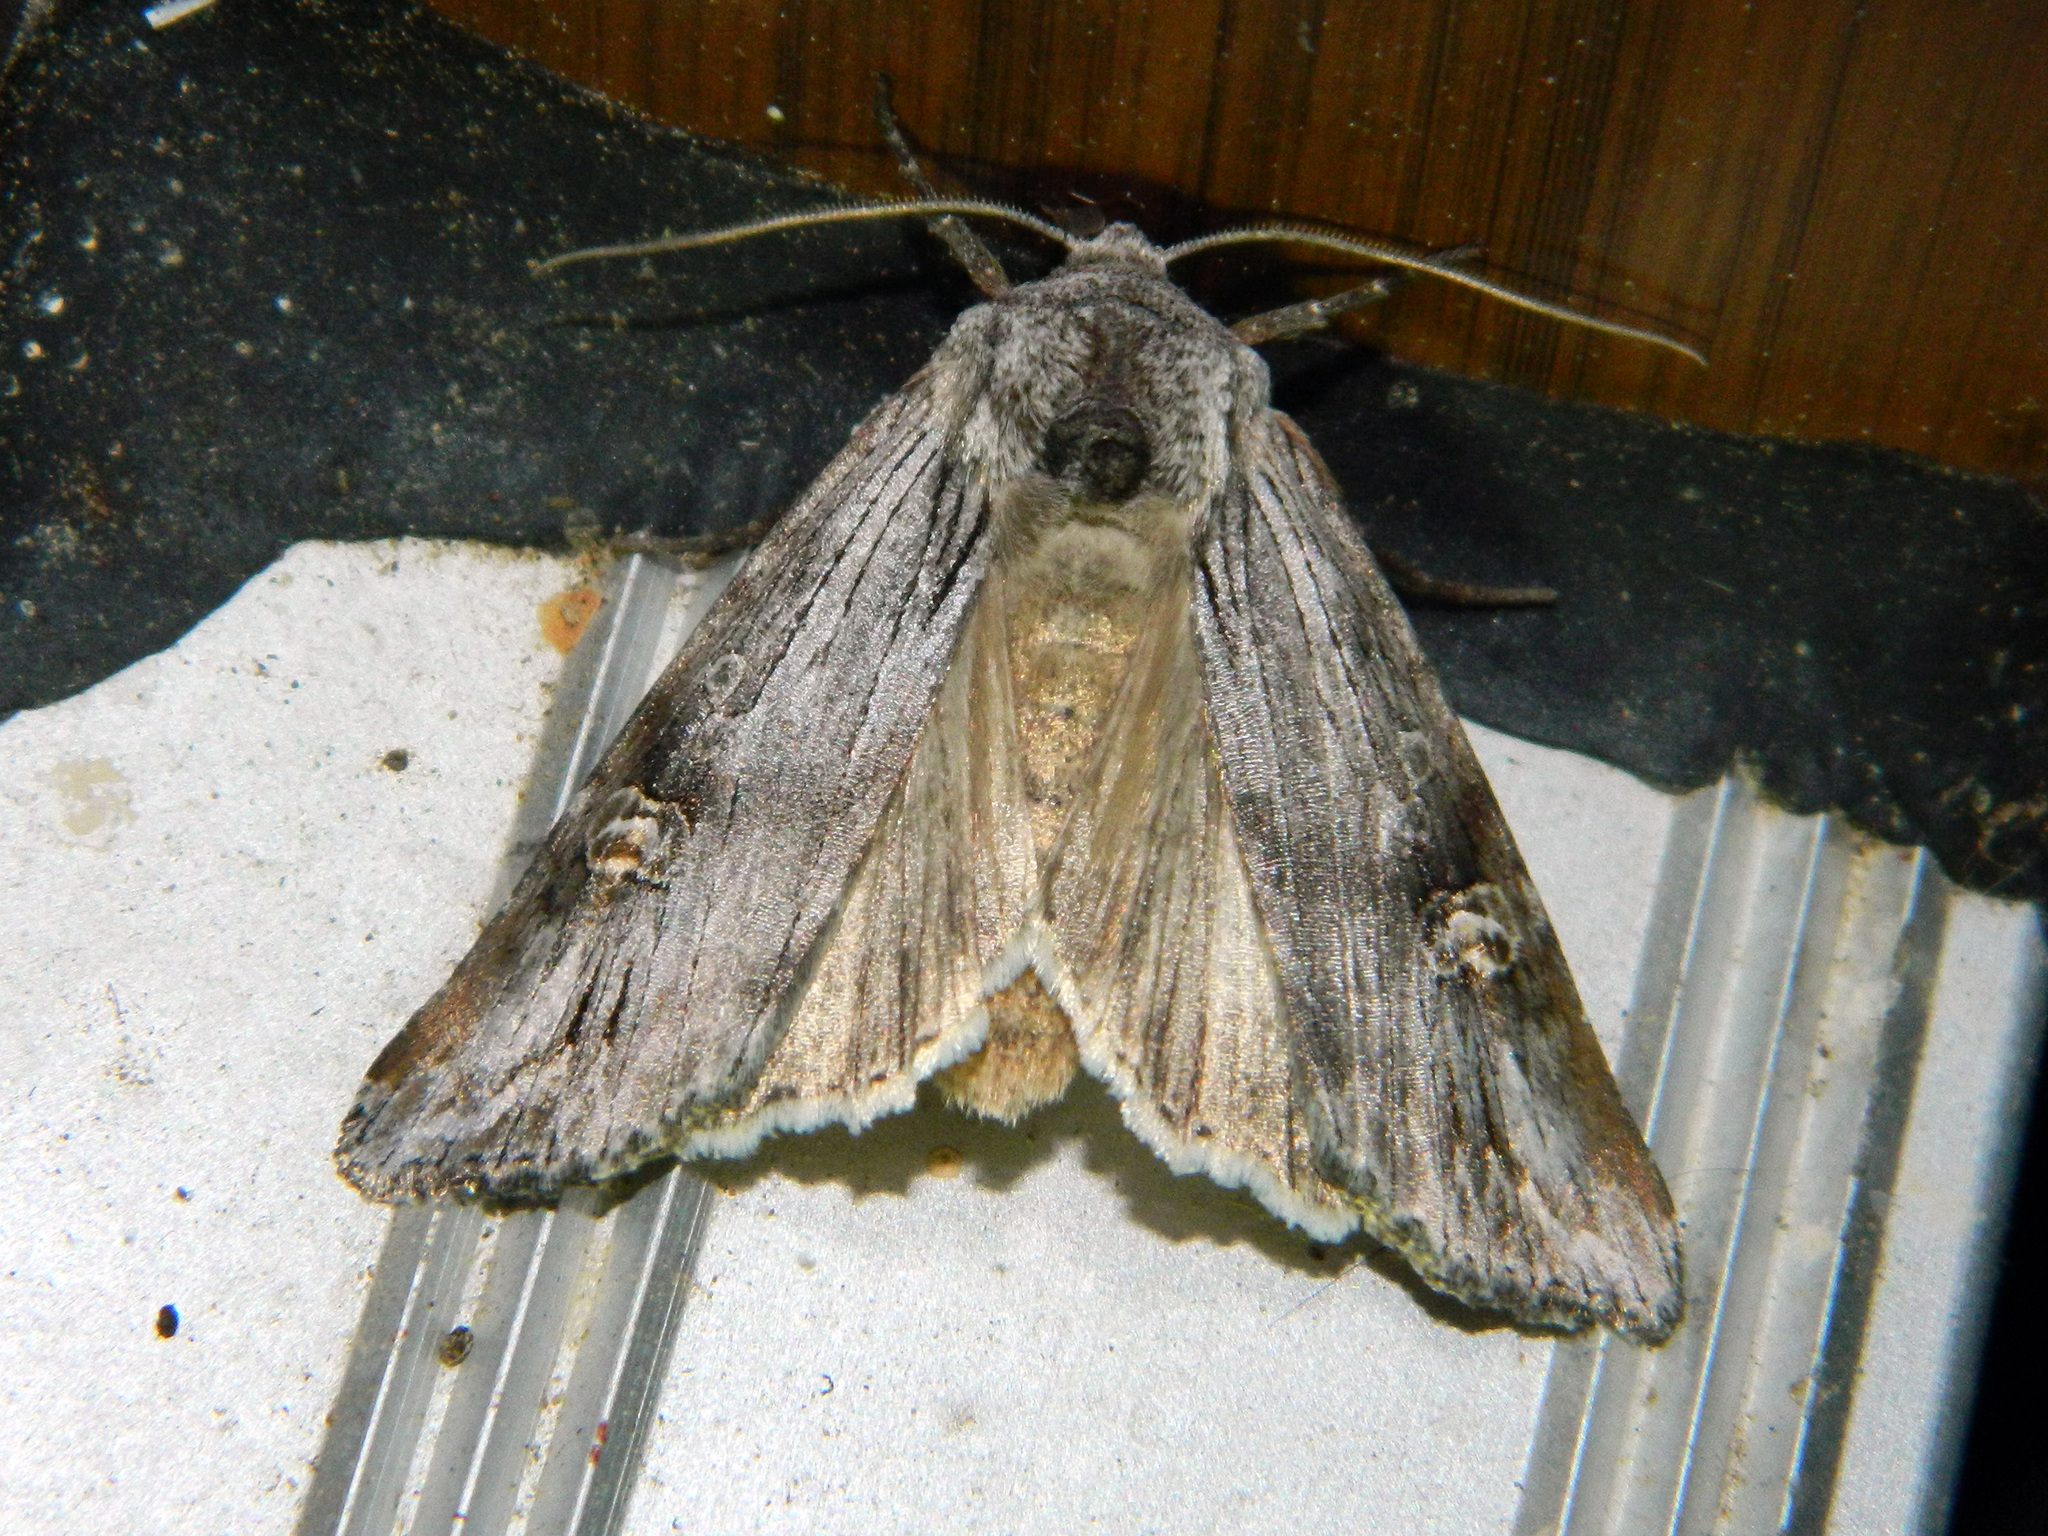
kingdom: Animalia
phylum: Arthropoda
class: Insecta
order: Lepidoptera
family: Noctuidae
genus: Xylena
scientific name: Xylena germana
